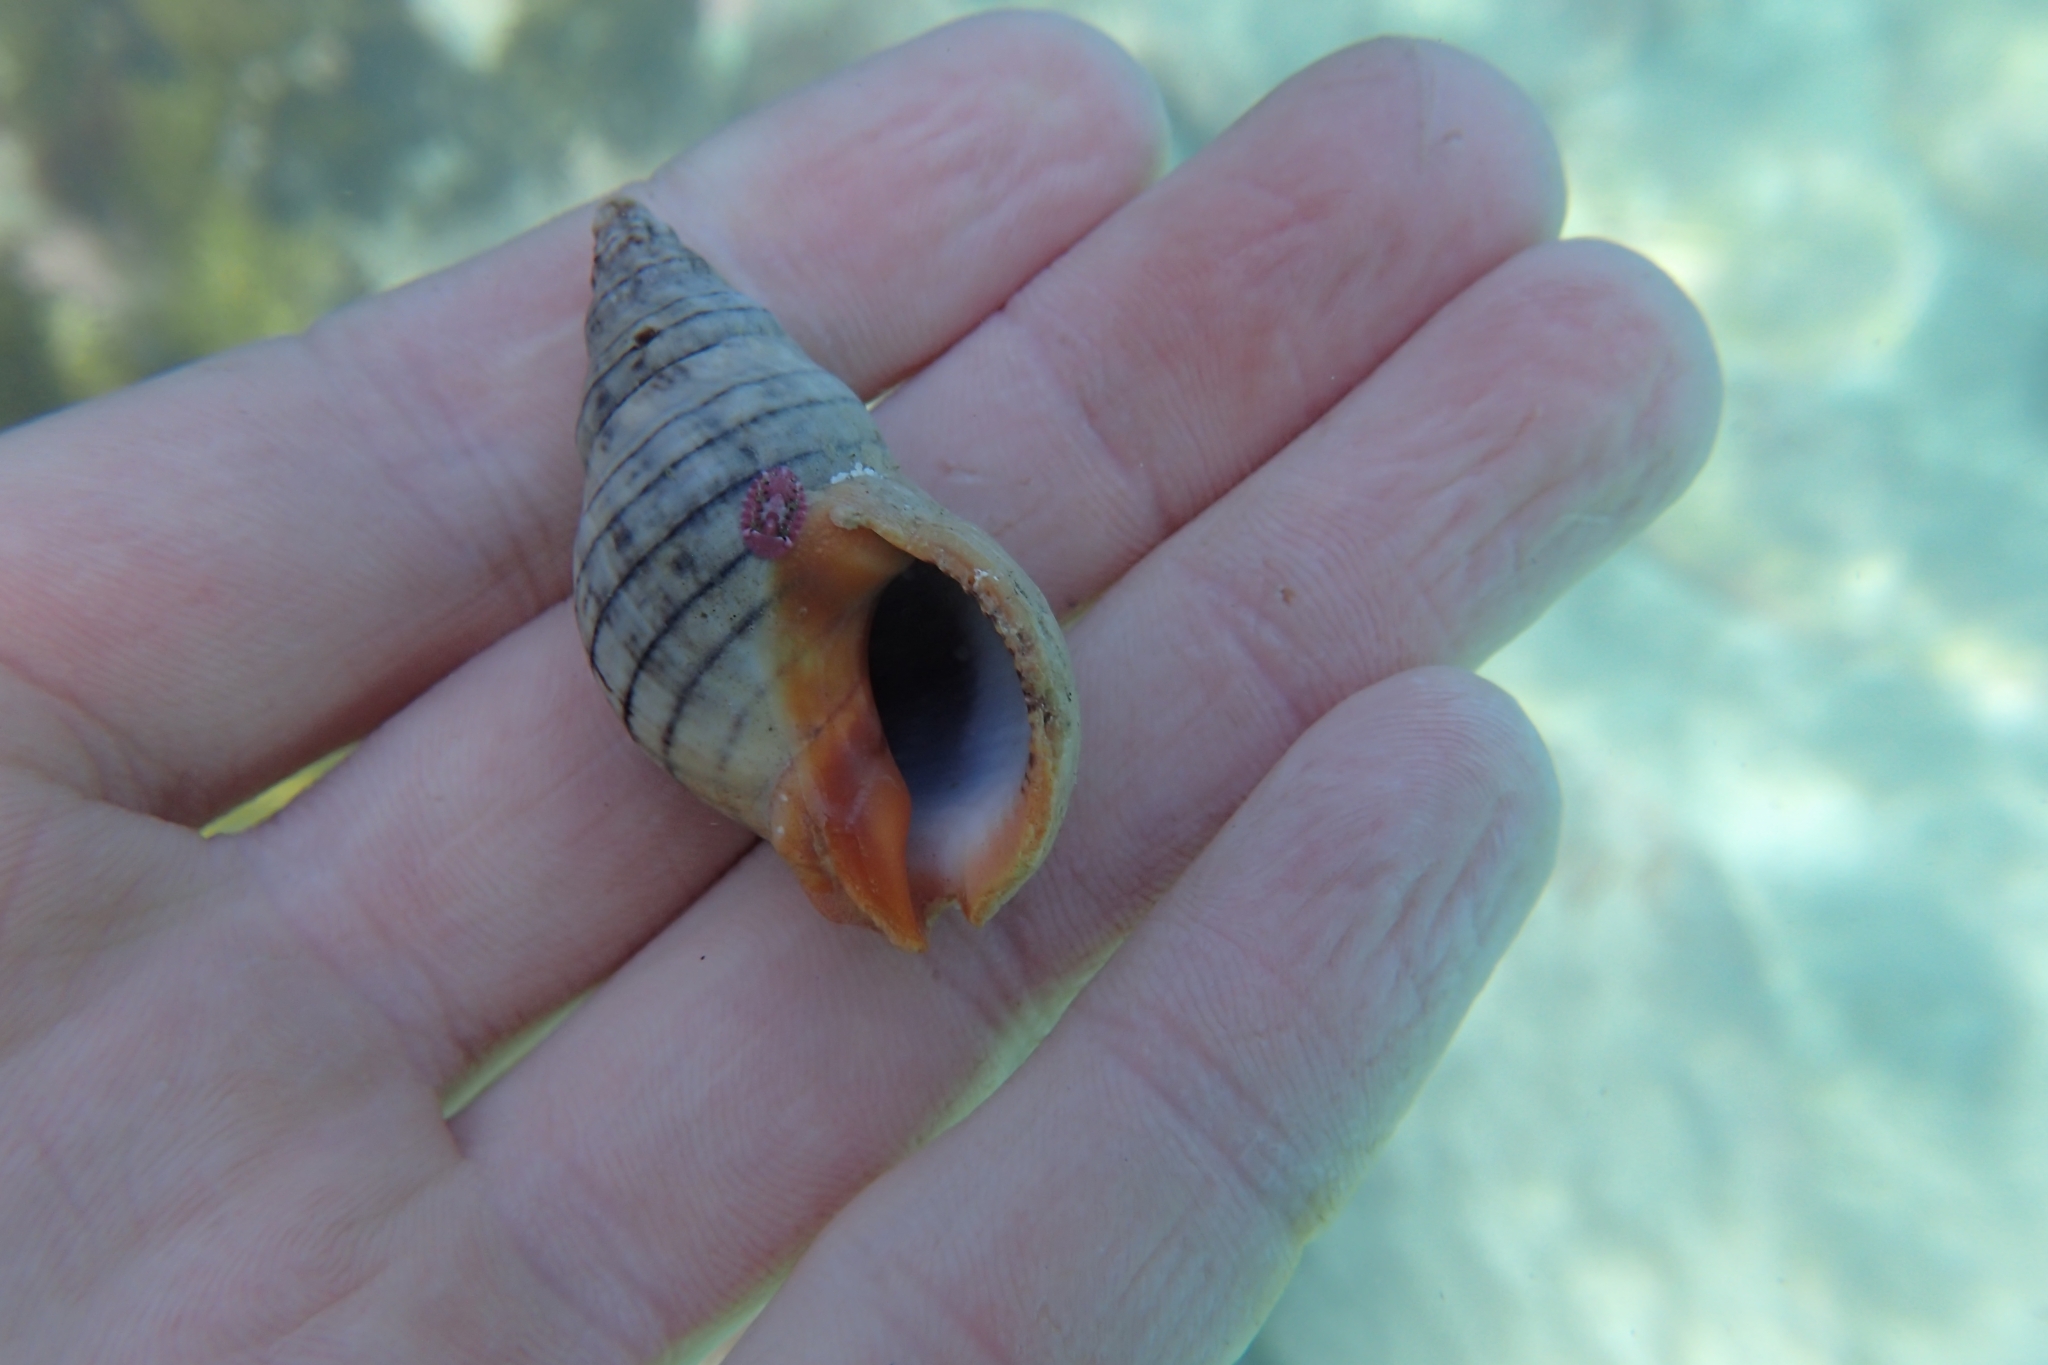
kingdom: Animalia
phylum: Mollusca
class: Gastropoda
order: Neogastropoda
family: Cominellidae
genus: Cominella
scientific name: Cominella virgata
